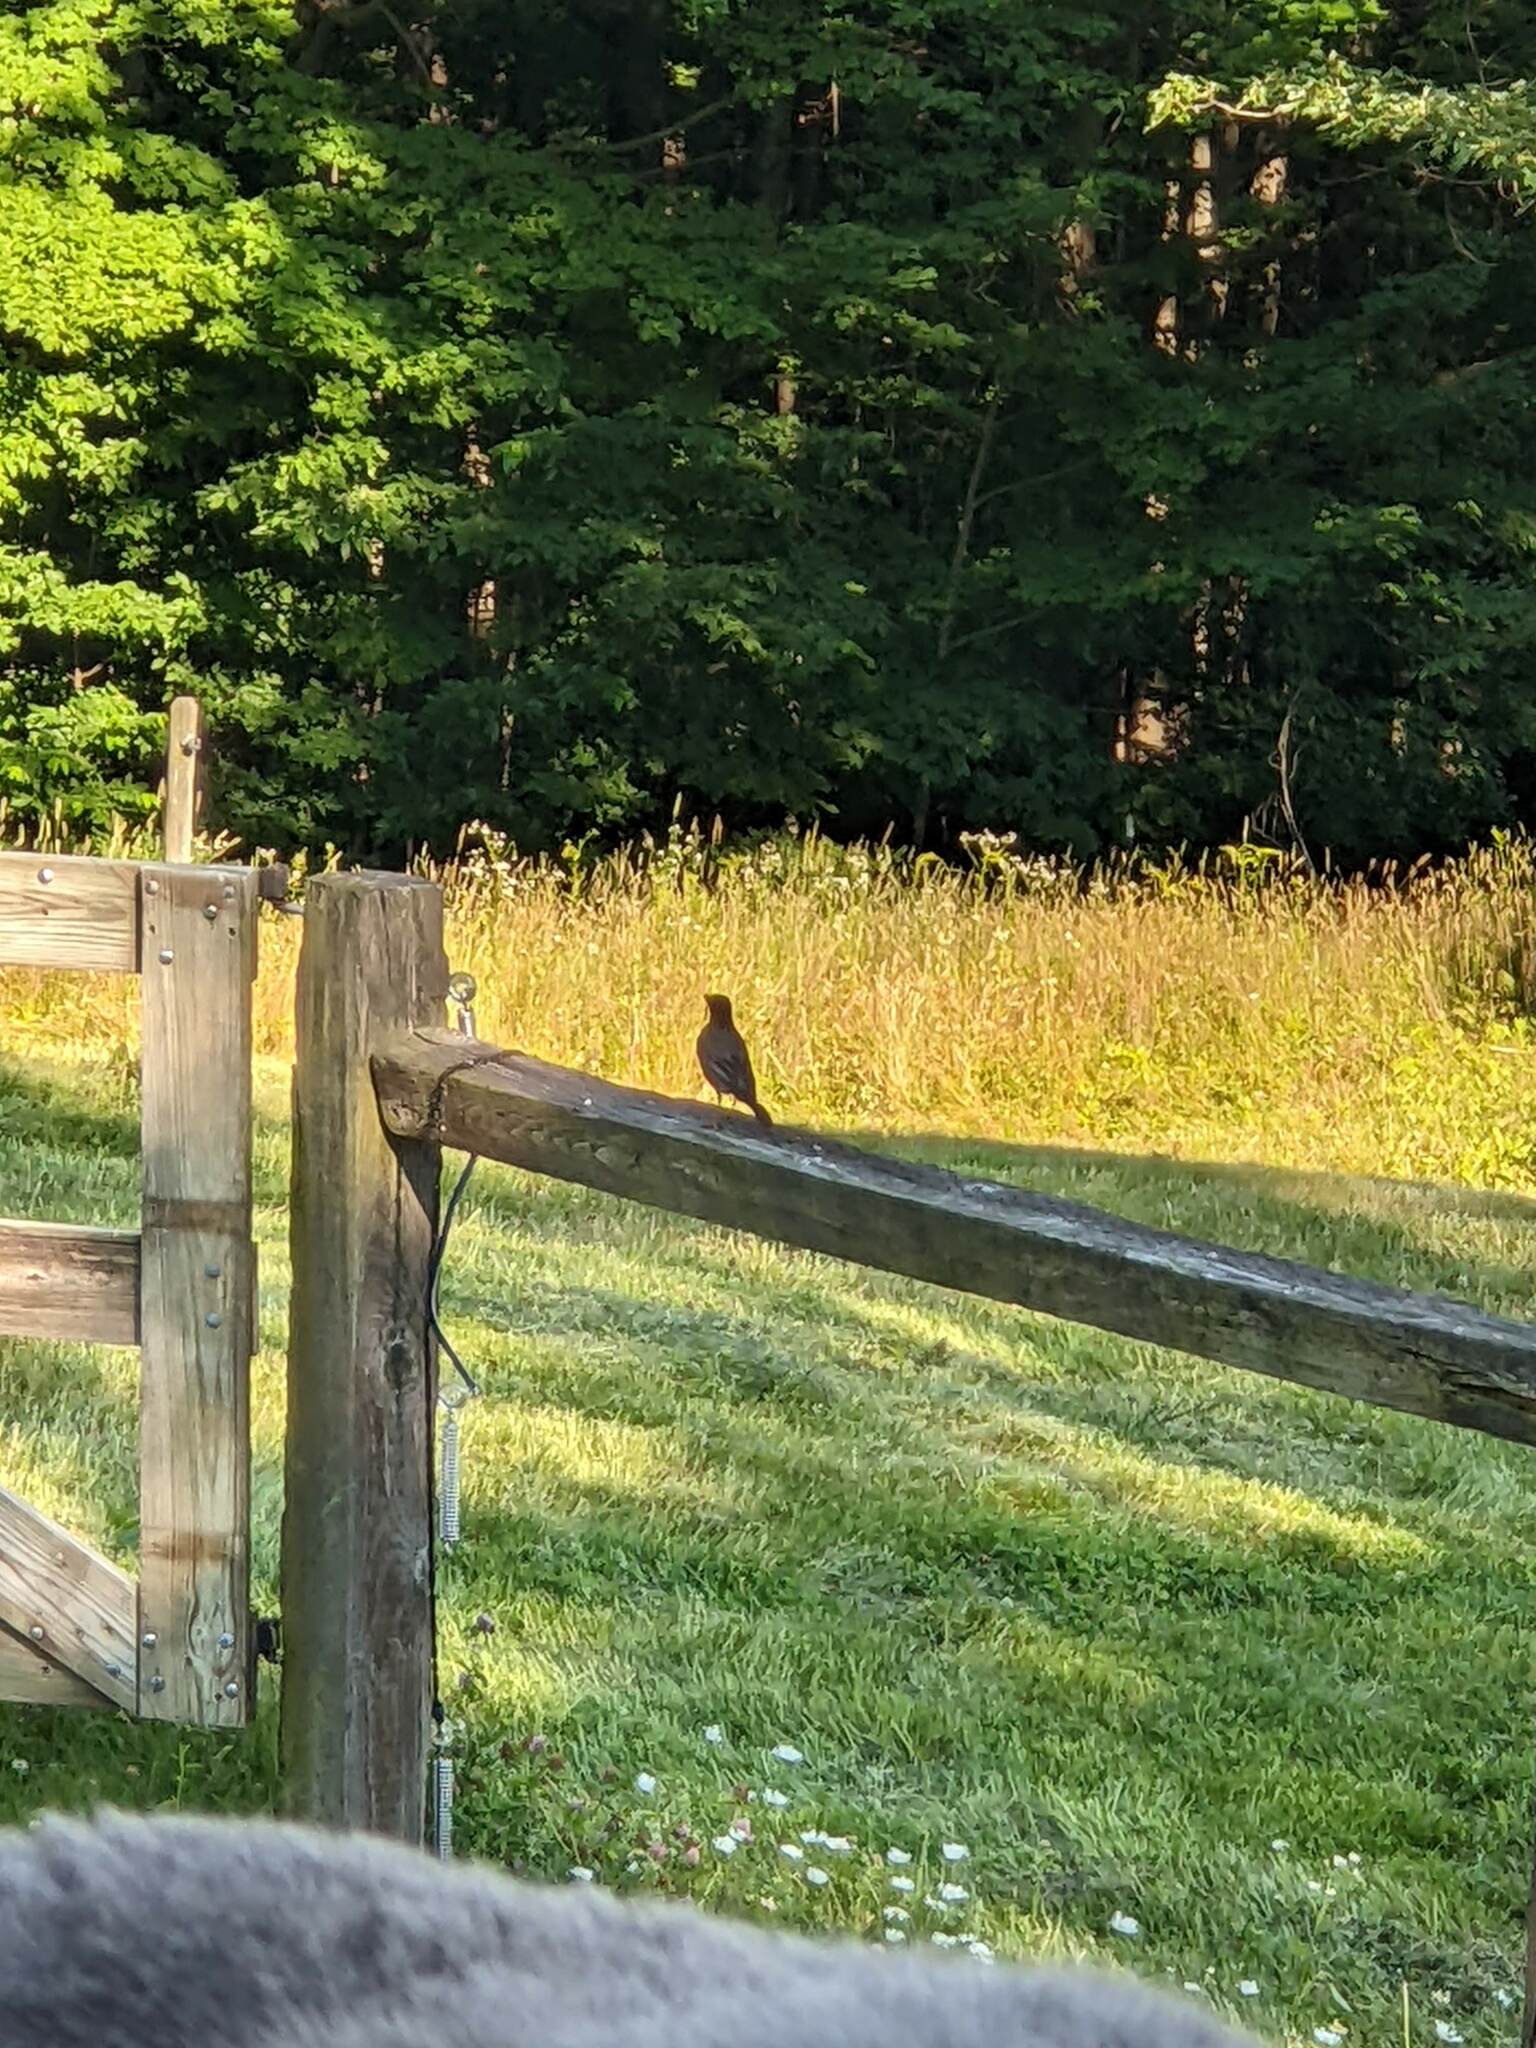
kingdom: Animalia
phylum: Chordata
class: Aves
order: Passeriformes
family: Turdidae
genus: Turdus
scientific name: Turdus migratorius
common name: American robin
